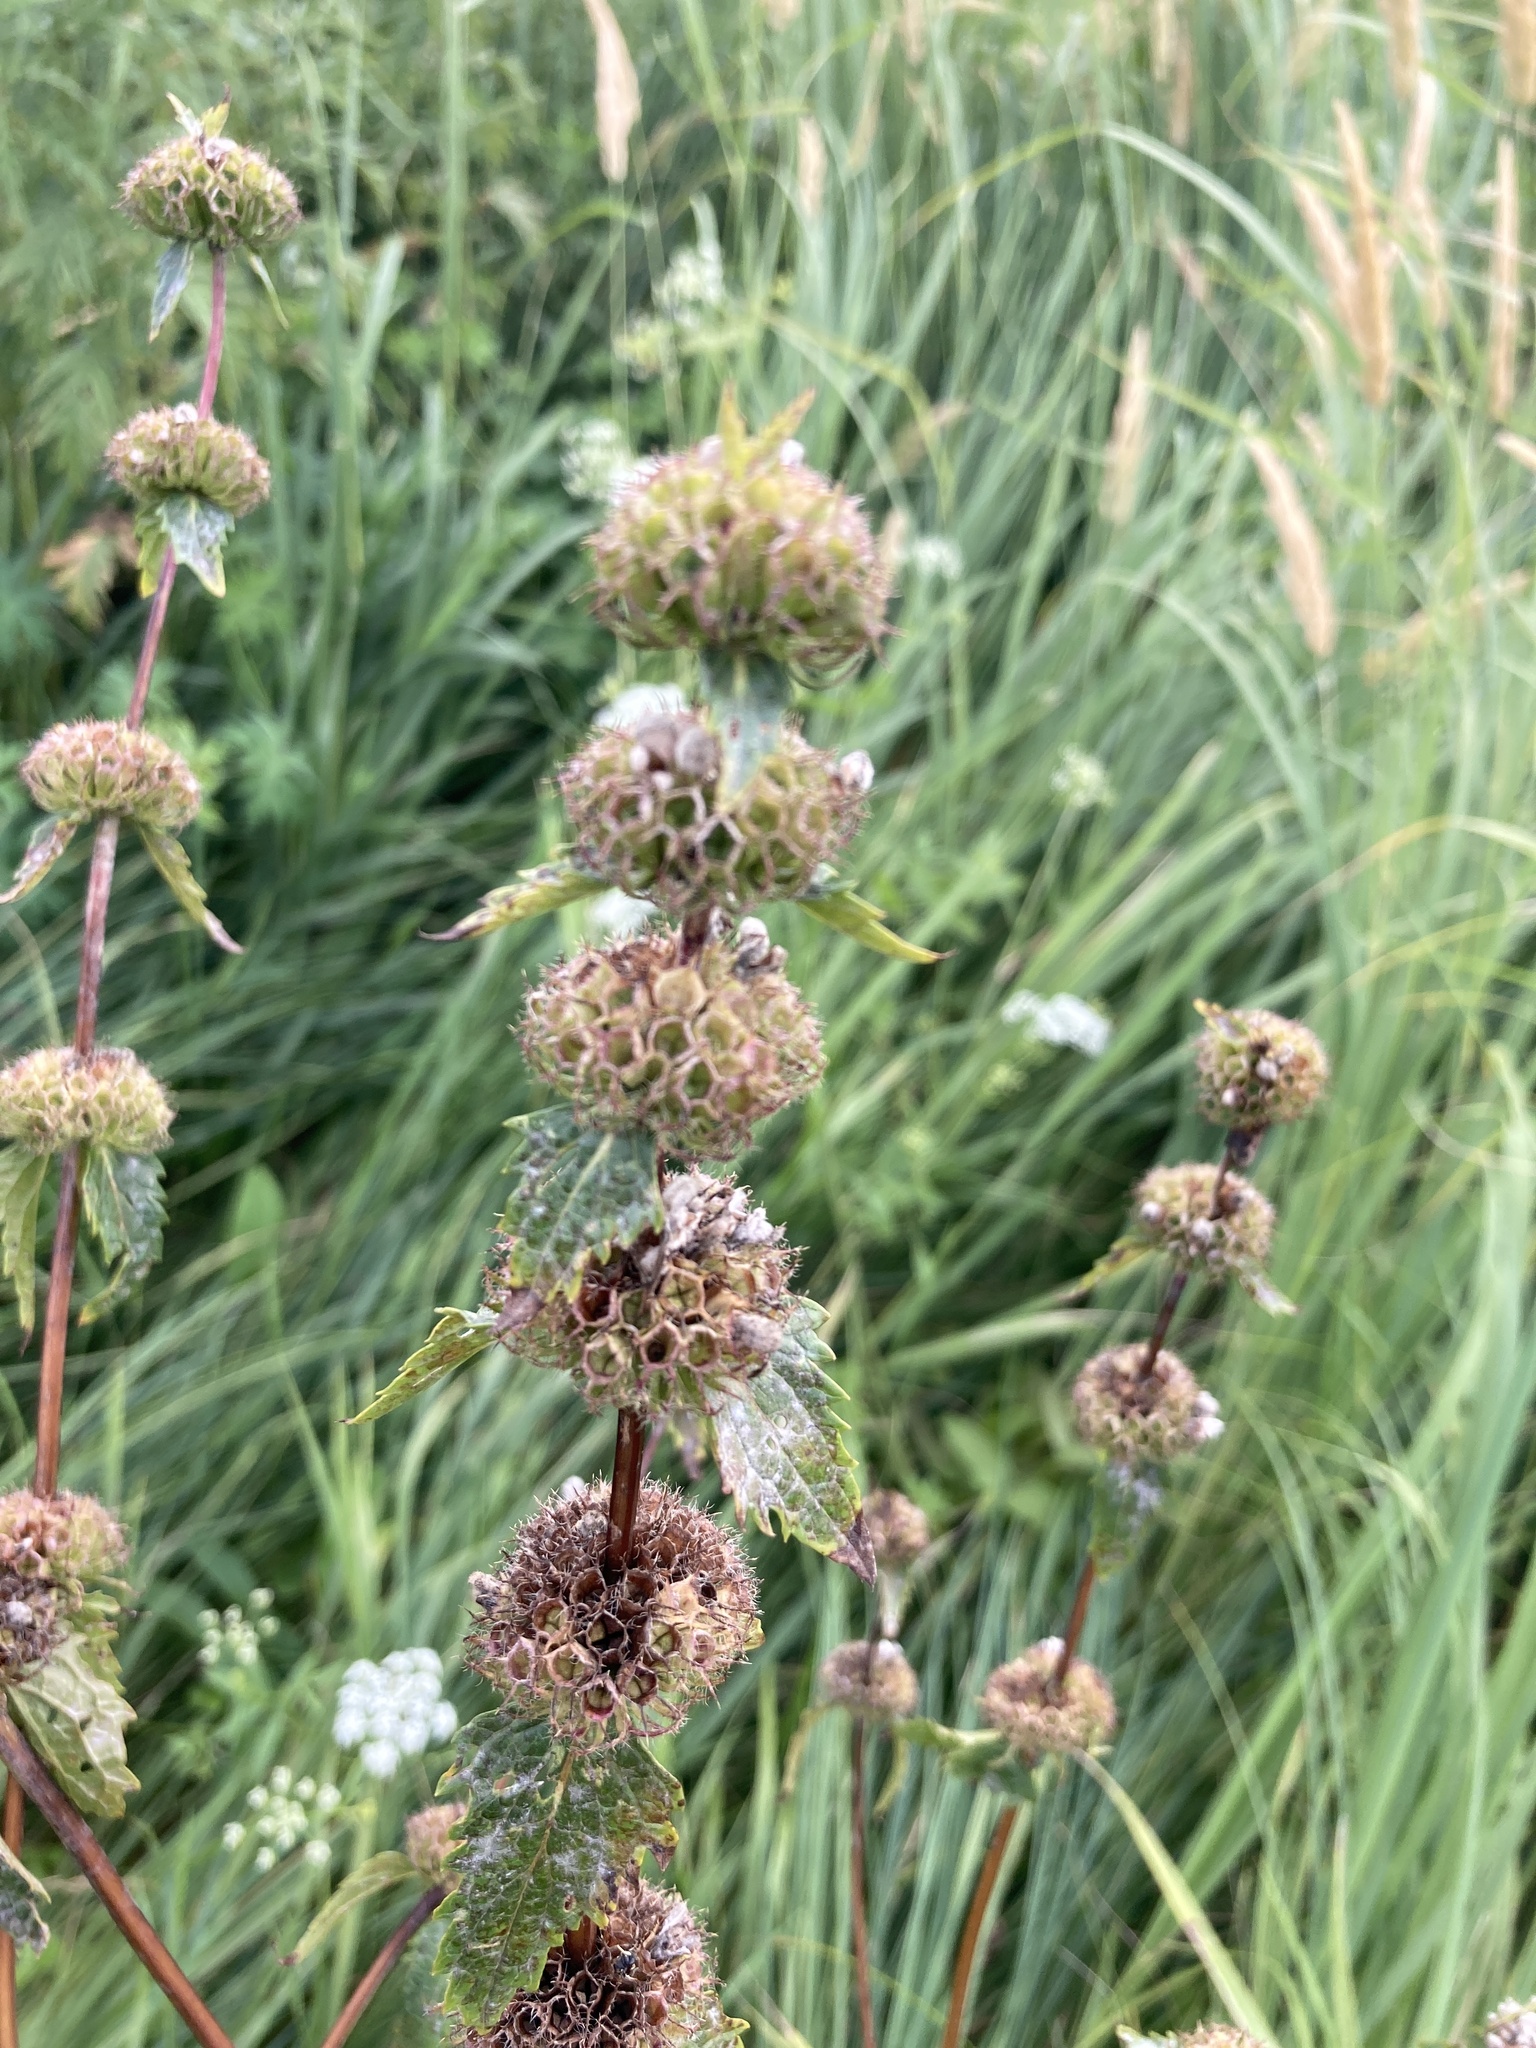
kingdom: Plantae
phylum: Tracheophyta
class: Magnoliopsida
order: Lamiales
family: Lamiaceae
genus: Phlomoides
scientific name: Phlomoides tuberosa
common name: Tuberous jerusalem sage
